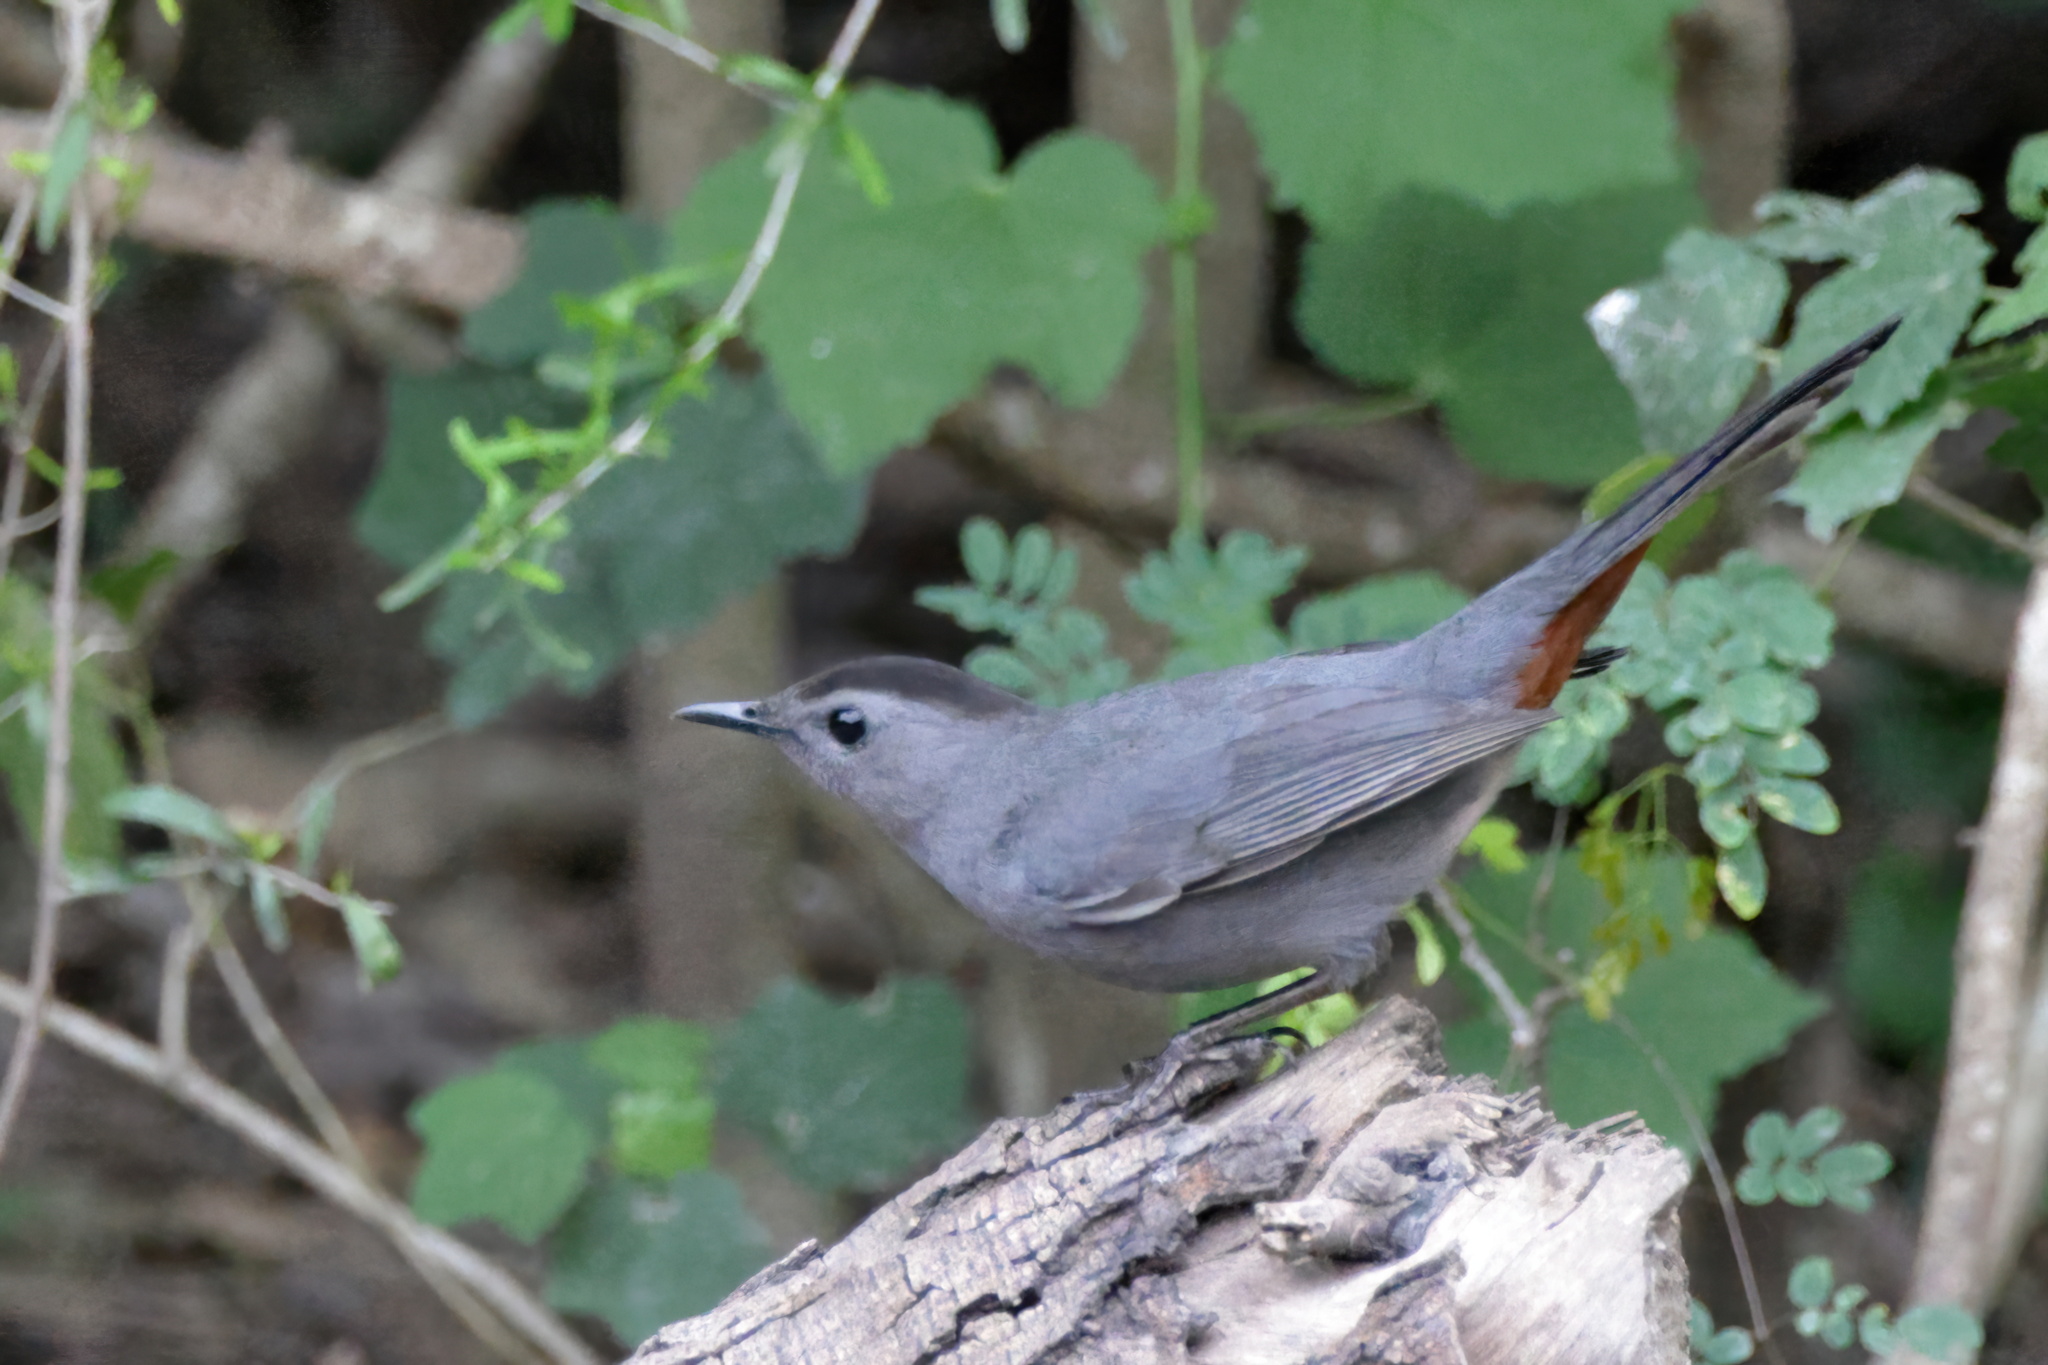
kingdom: Animalia
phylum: Chordata
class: Aves
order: Passeriformes
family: Mimidae
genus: Dumetella
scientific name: Dumetella carolinensis
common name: Gray catbird
